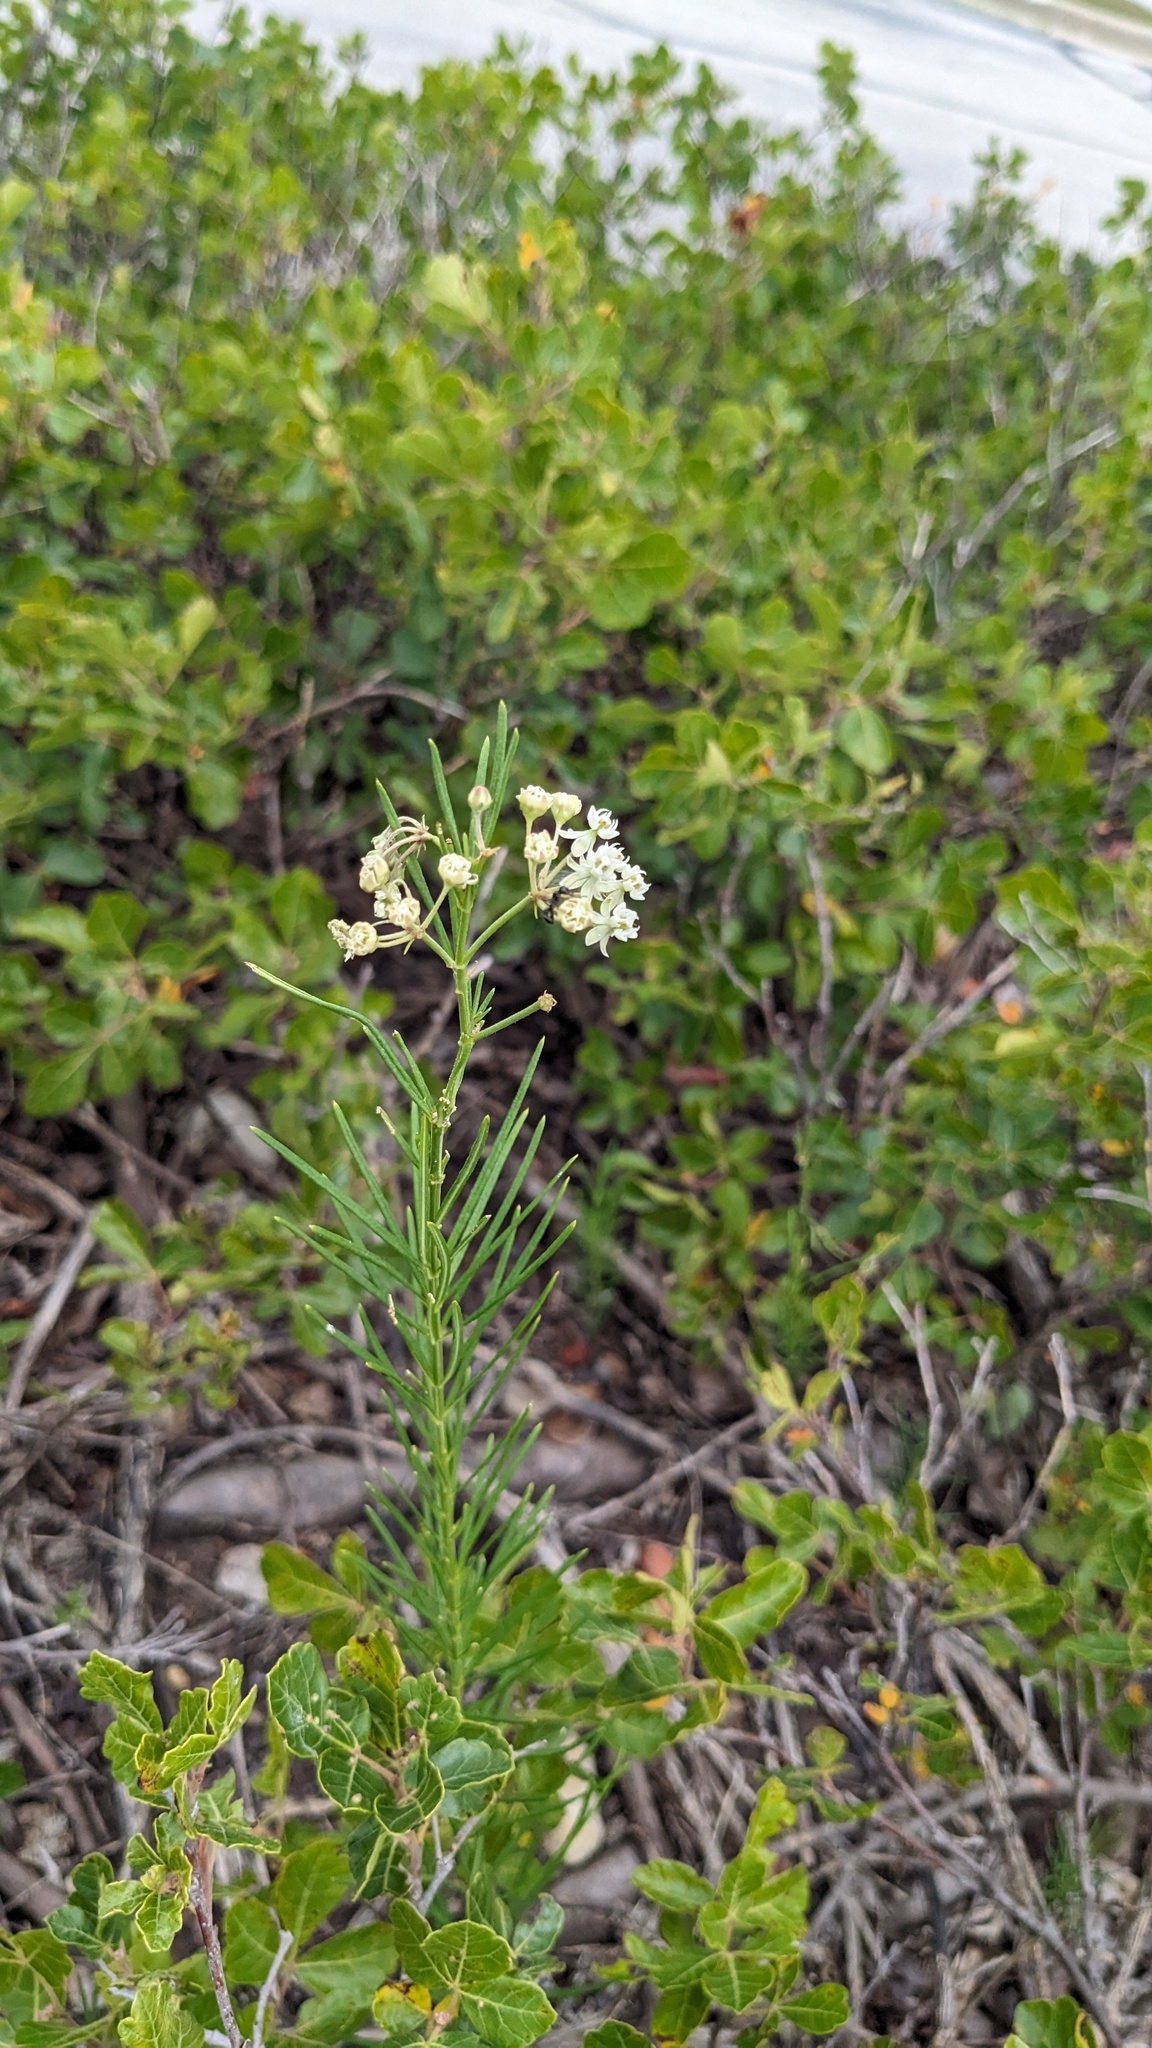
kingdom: Plantae
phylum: Tracheophyta
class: Magnoliopsida
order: Gentianales
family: Apocynaceae
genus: Asclepias
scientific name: Asclepias verticillata
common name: Eastern whorled milkweed
